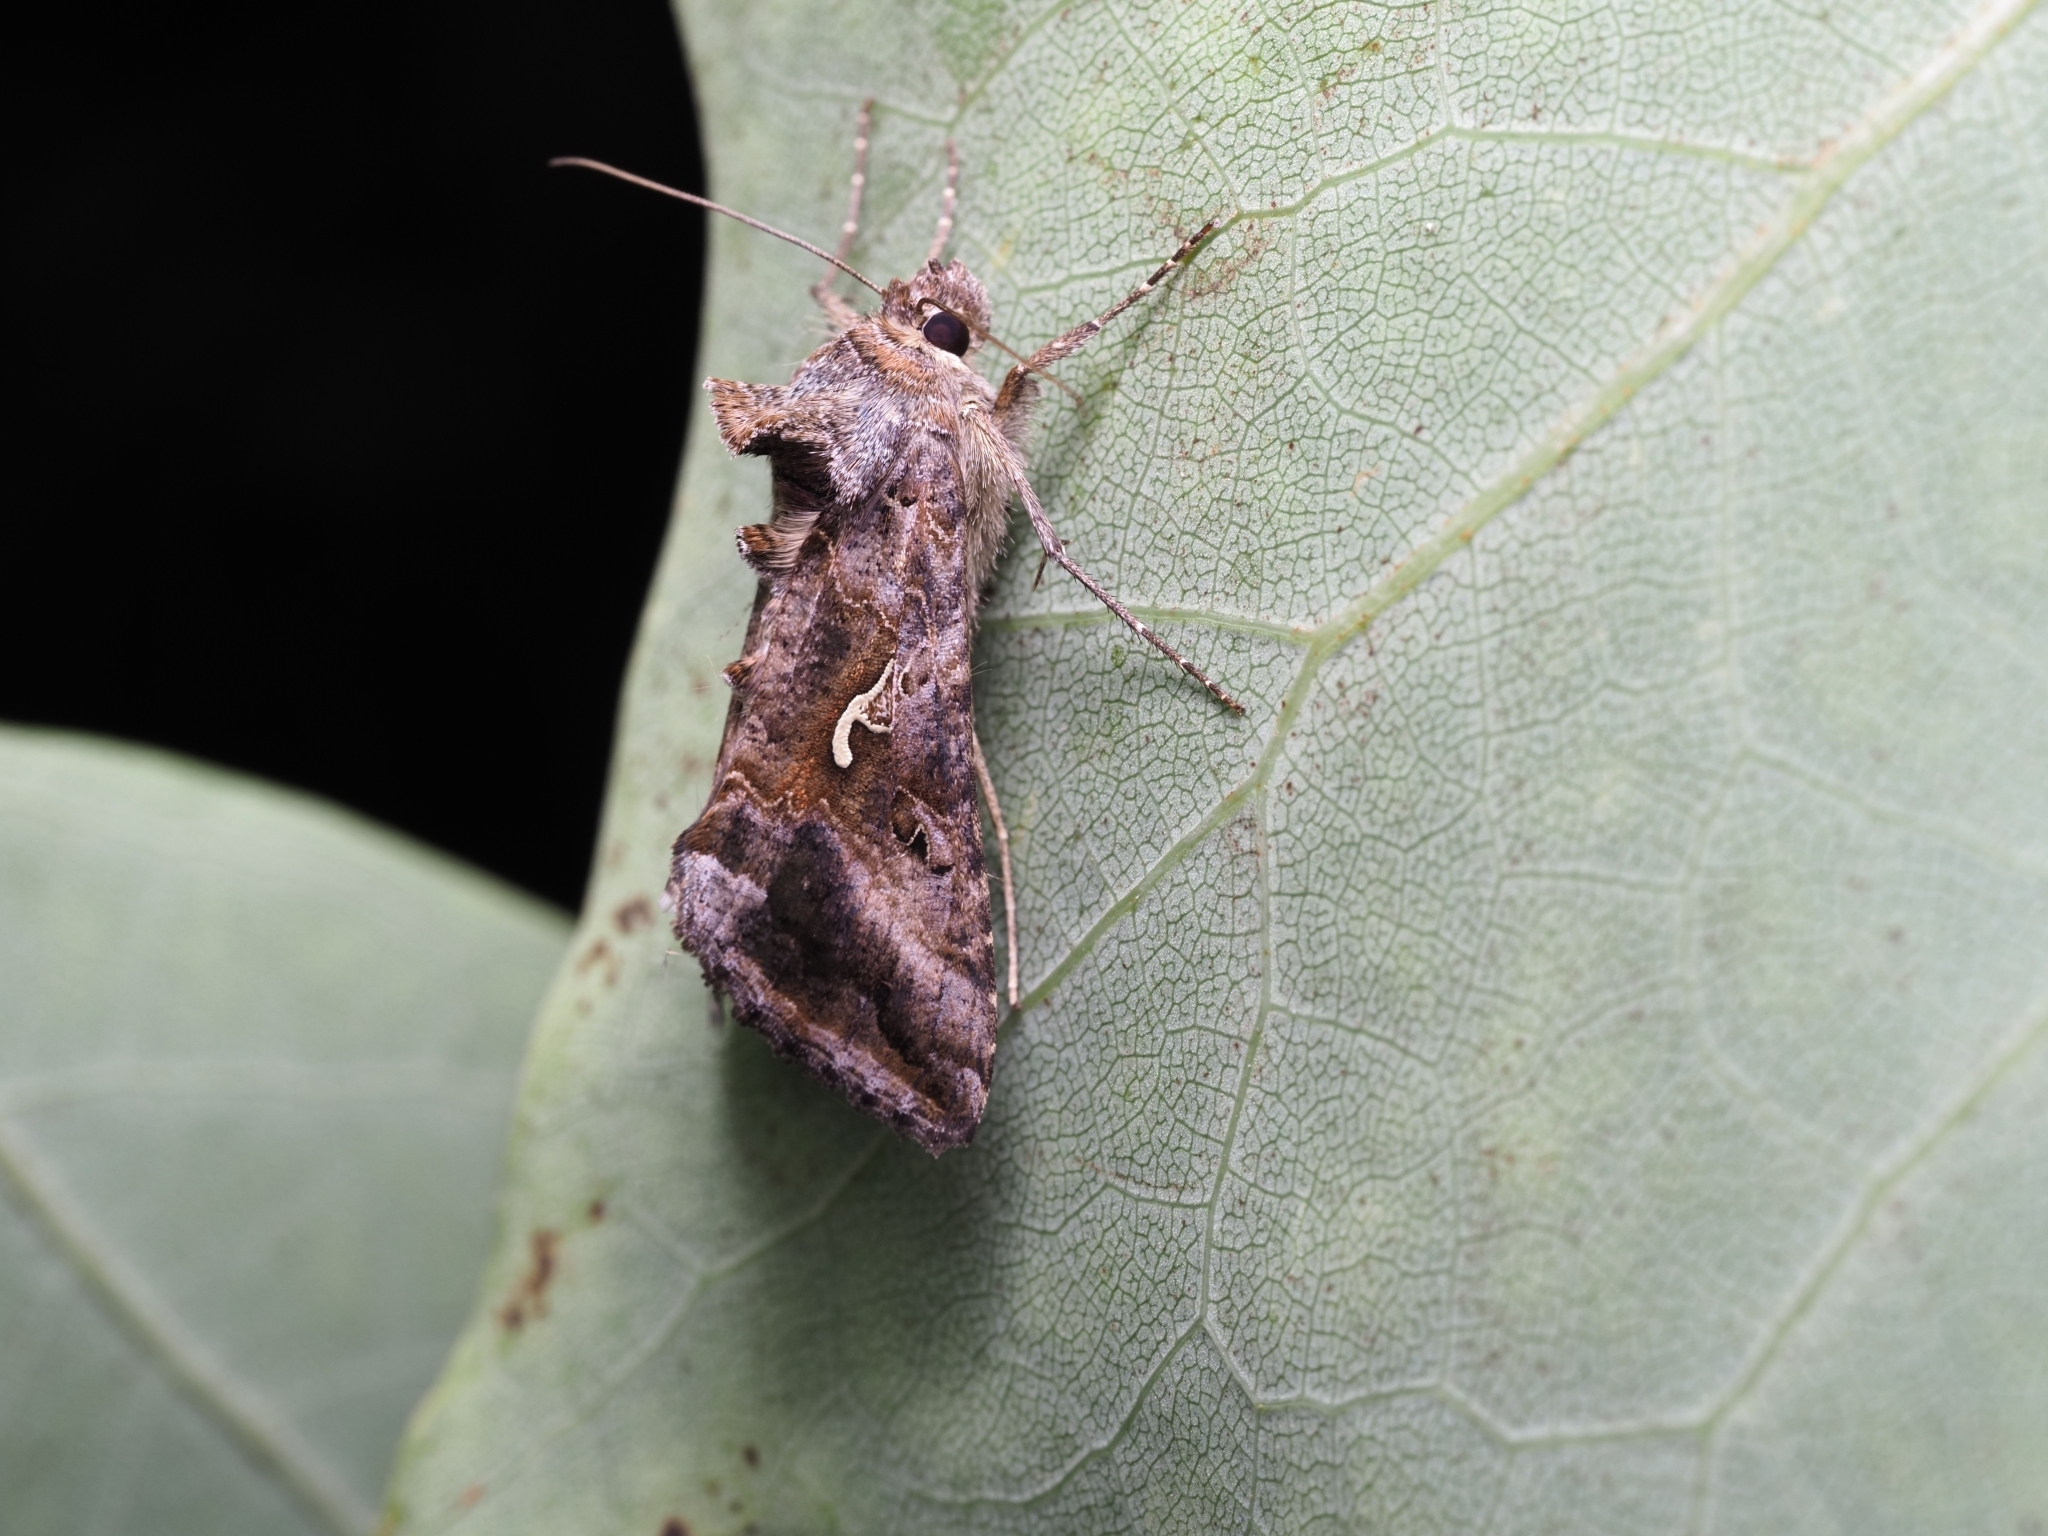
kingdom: Animalia
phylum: Arthropoda
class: Insecta
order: Lepidoptera
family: Noctuidae
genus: Autographa
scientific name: Autographa gamma
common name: Silver y
